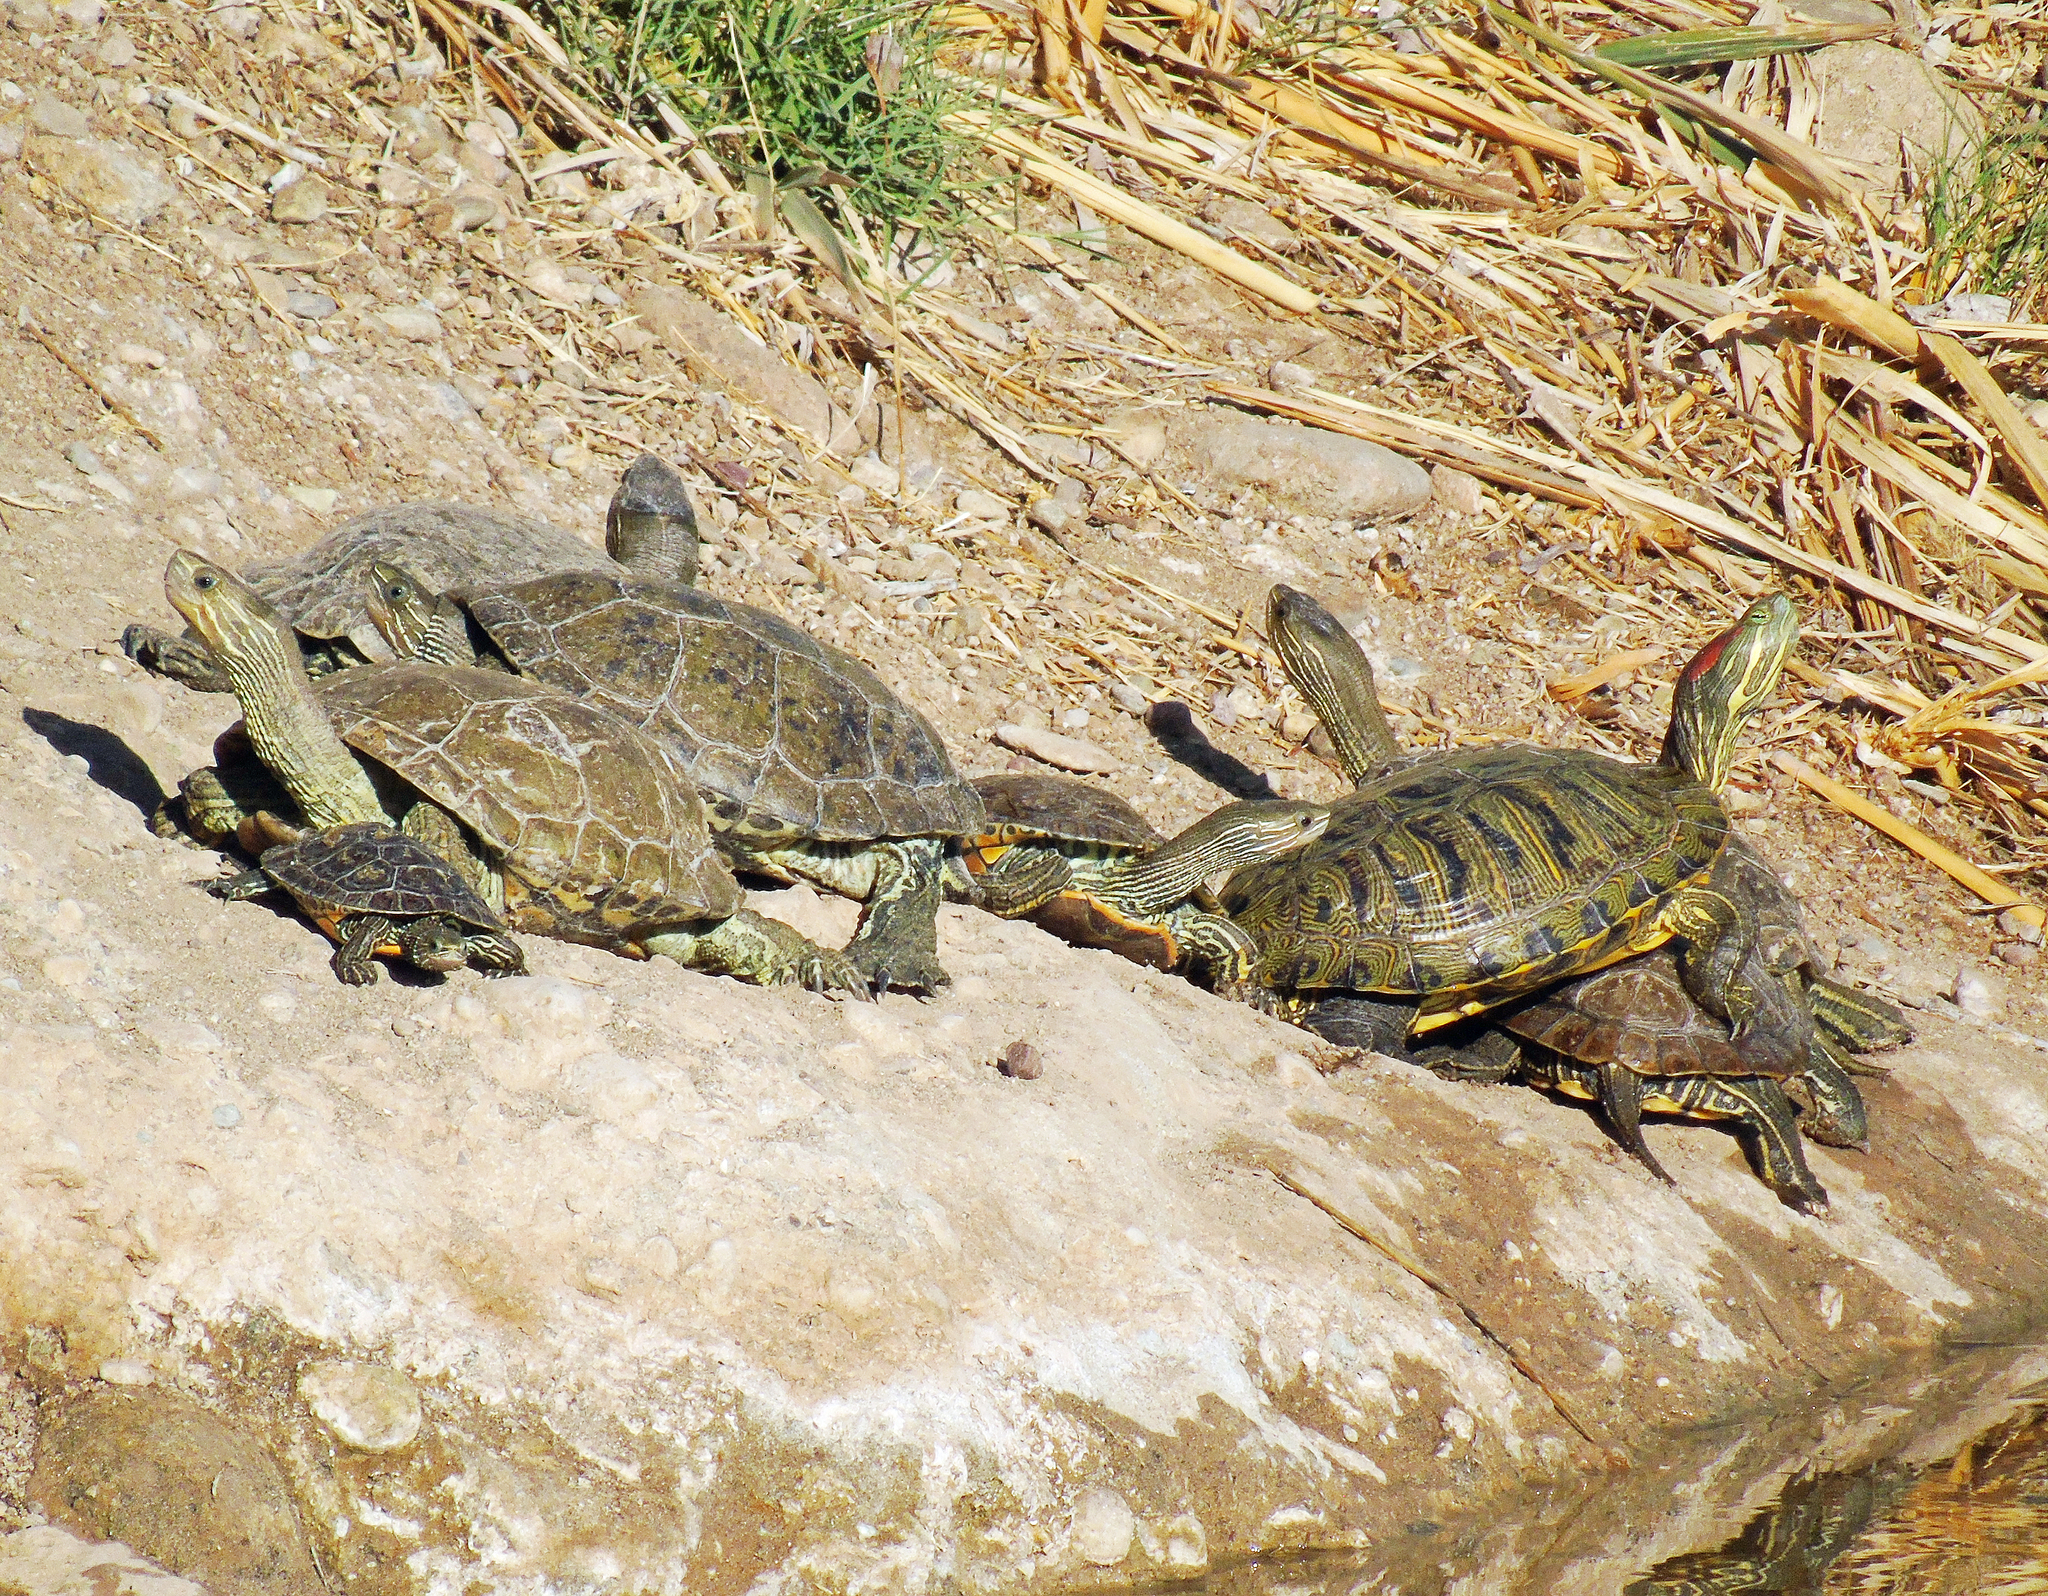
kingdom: Animalia
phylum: Chordata
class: Testudines
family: Geoemydidae
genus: Mauremys
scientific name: Mauremys caspica
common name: Caspian turtle
